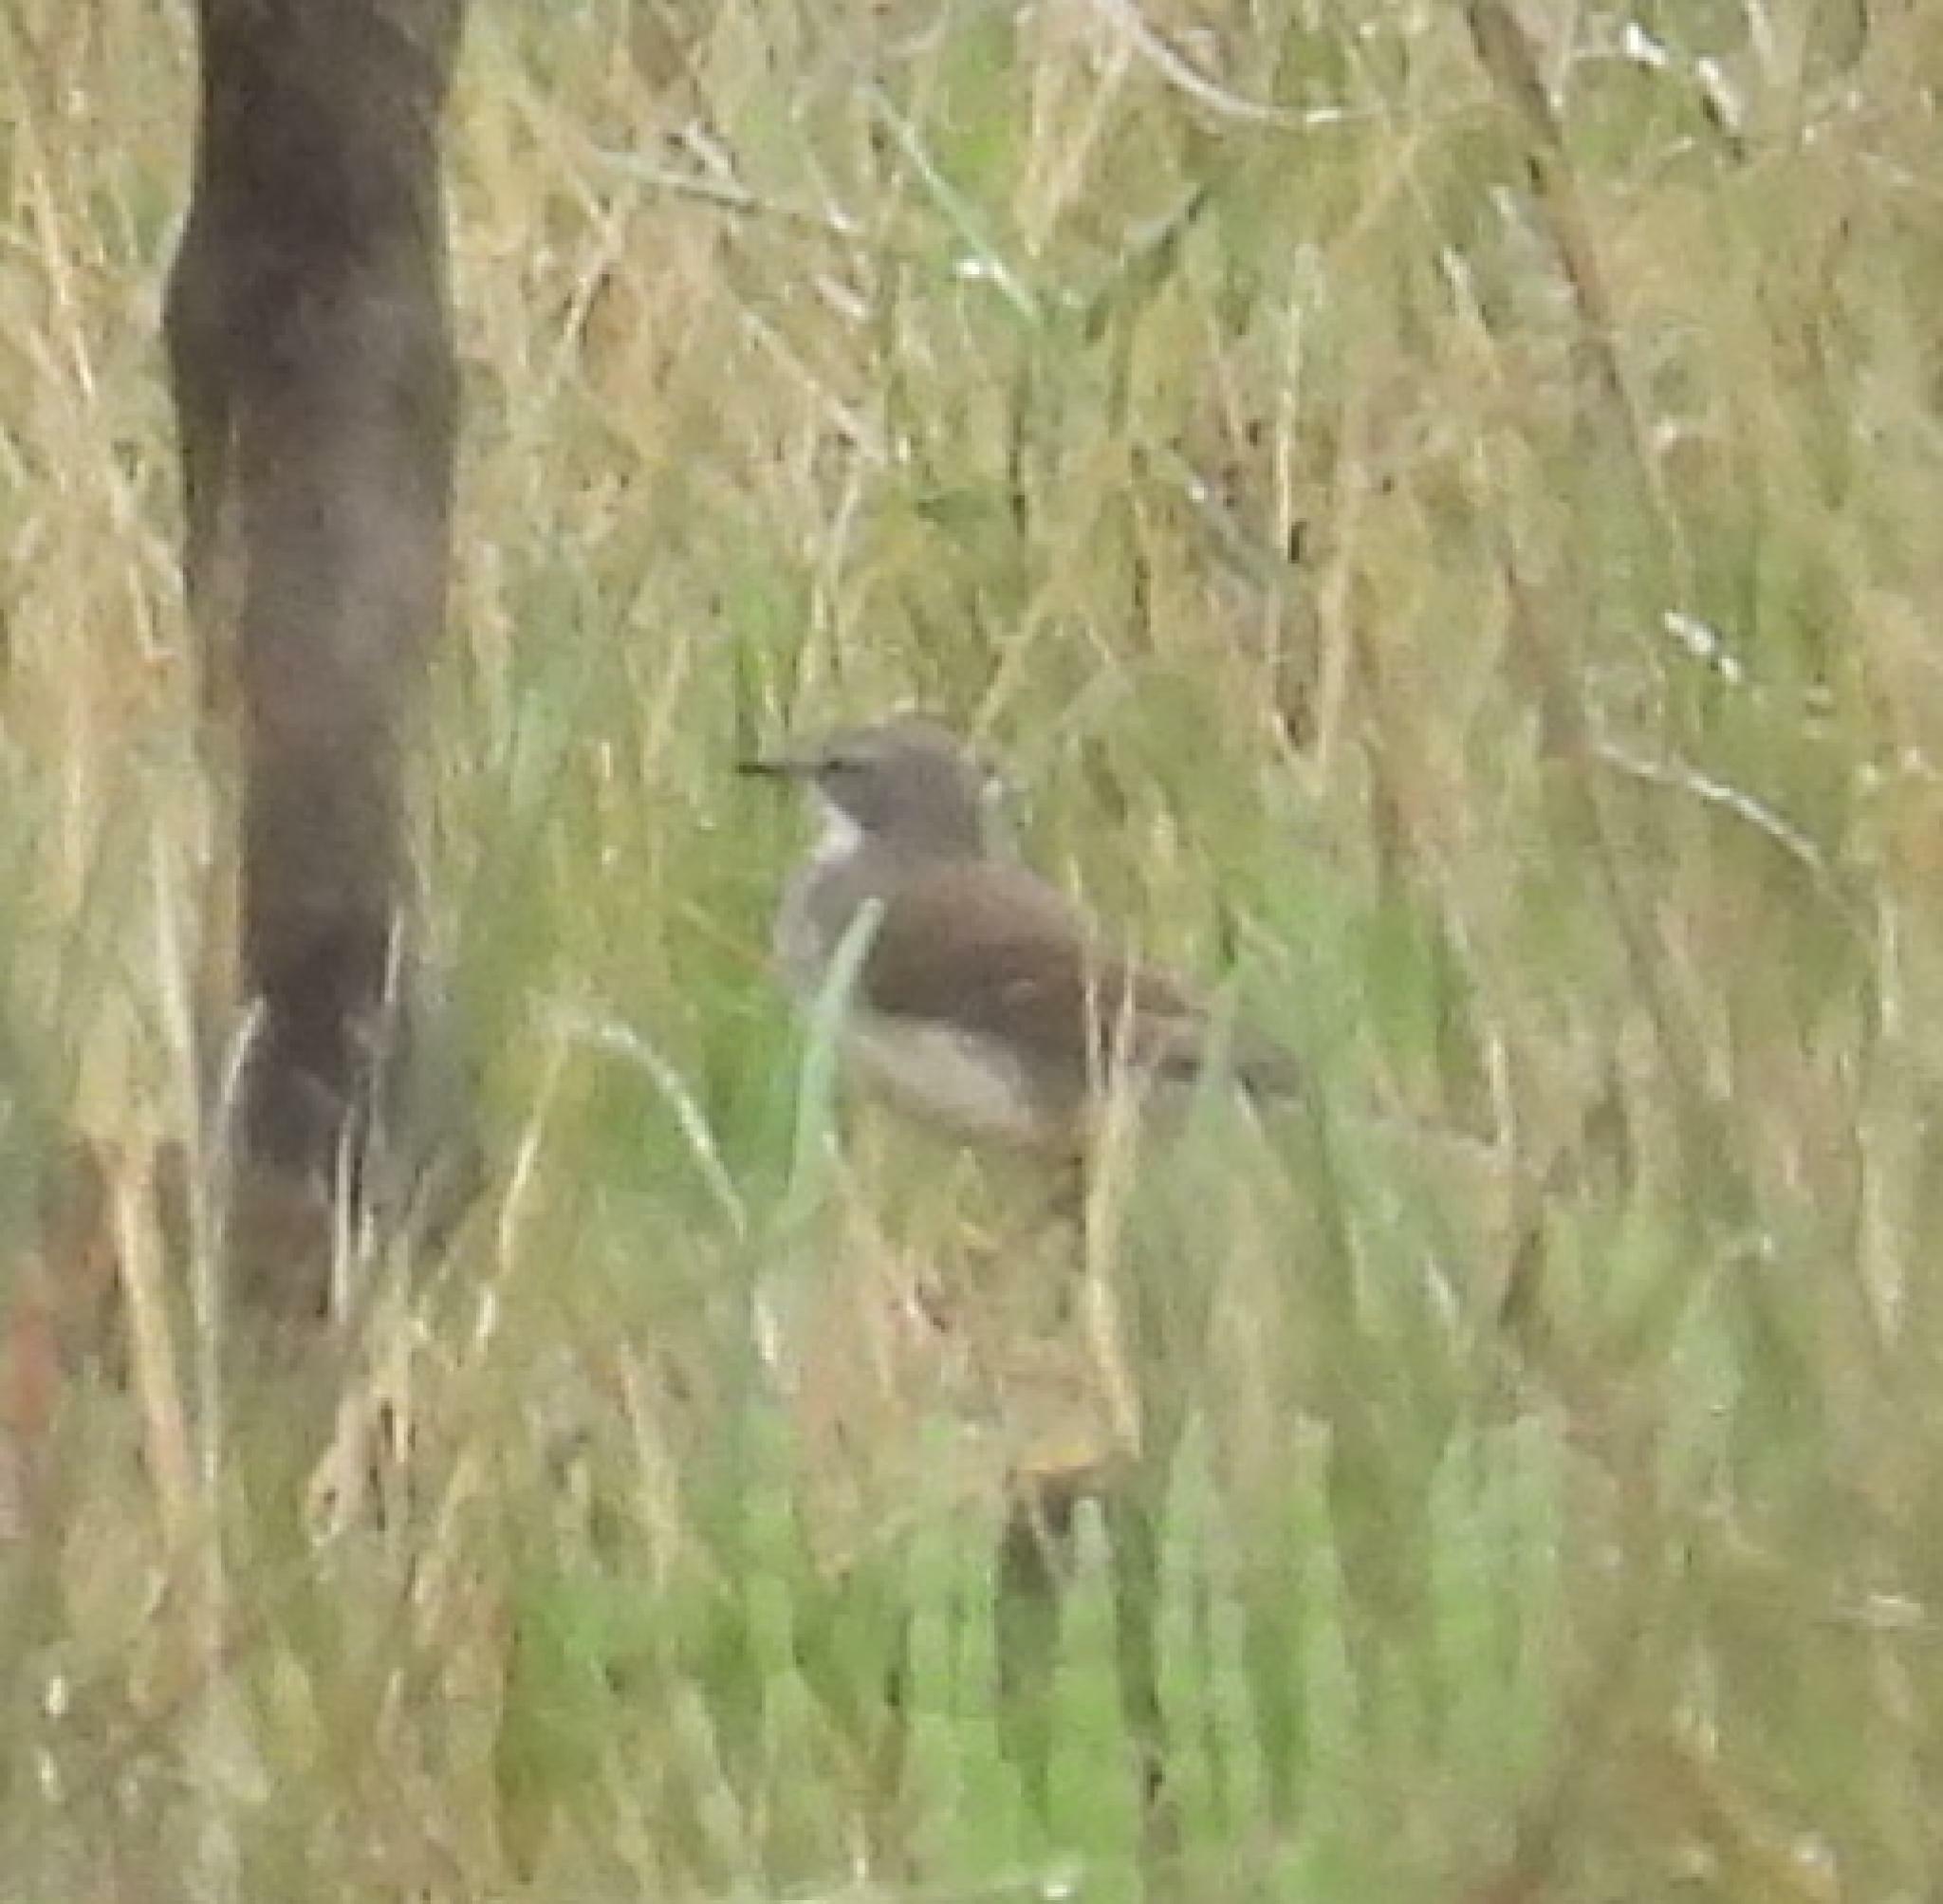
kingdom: Animalia
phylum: Chordata
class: Aves
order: Passeriformes
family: Motacillidae
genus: Motacilla
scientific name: Motacilla capensis
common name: Cape wagtail
